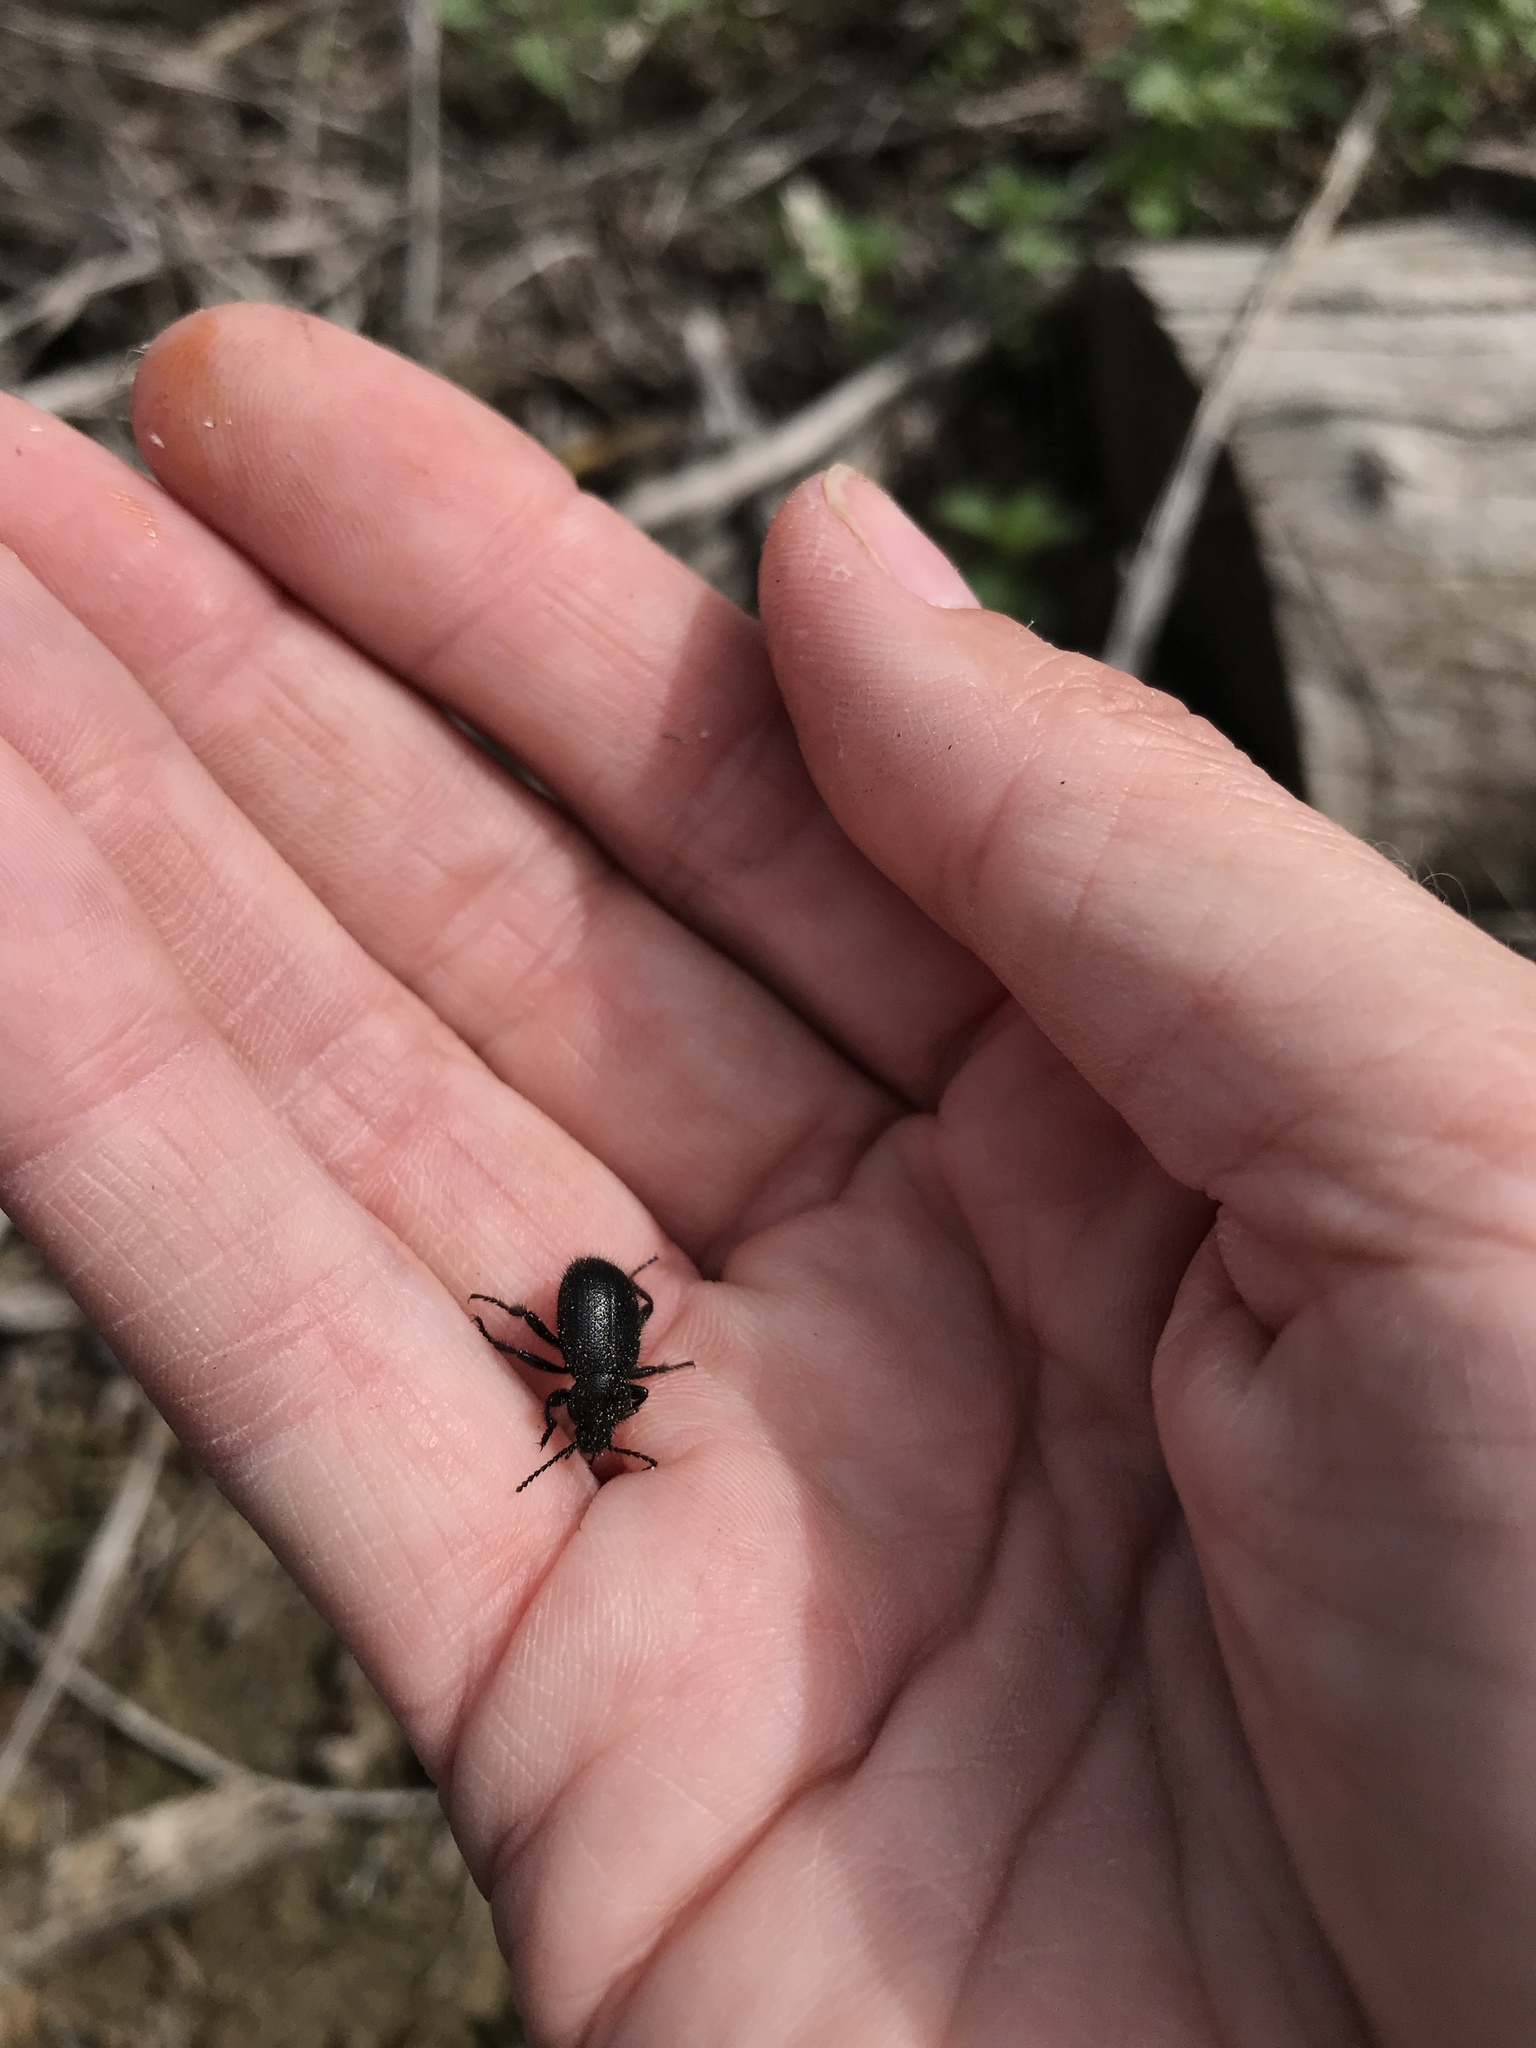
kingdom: Animalia
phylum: Arthropoda
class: Insecta
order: Coleoptera
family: Tenebrionidae
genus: Eleodes
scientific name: Eleodes nigropilosa
